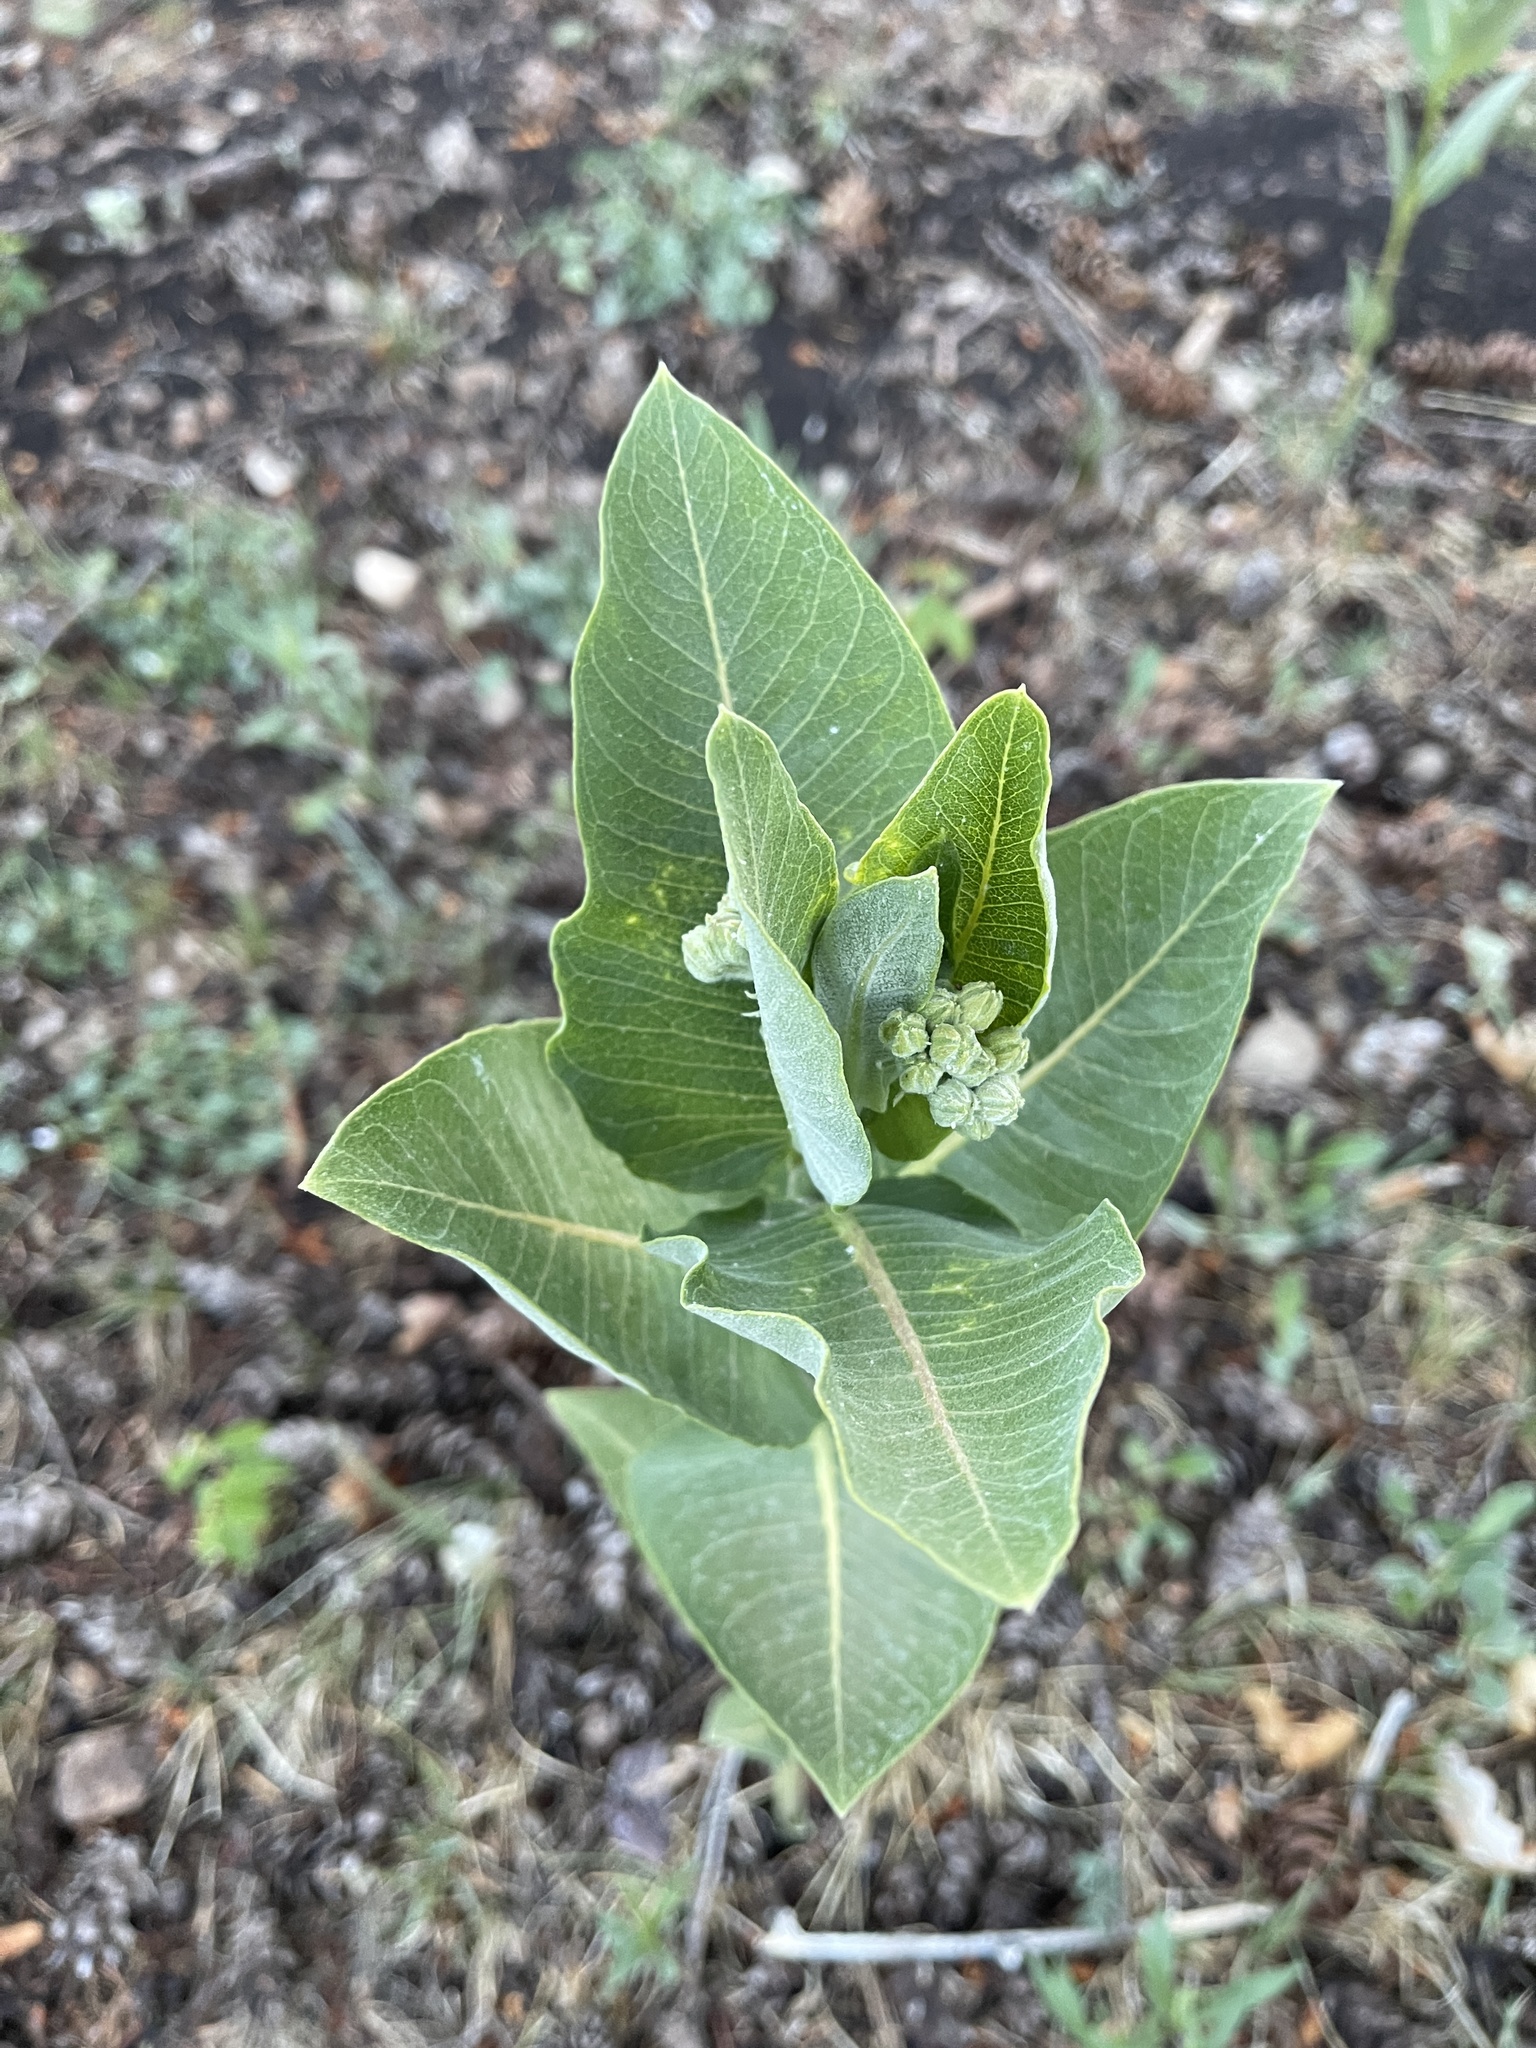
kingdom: Plantae
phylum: Tracheophyta
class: Magnoliopsida
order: Gentianales
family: Apocynaceae
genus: Asclepias
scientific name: Asclepias speciosa
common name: Showy milkweed
